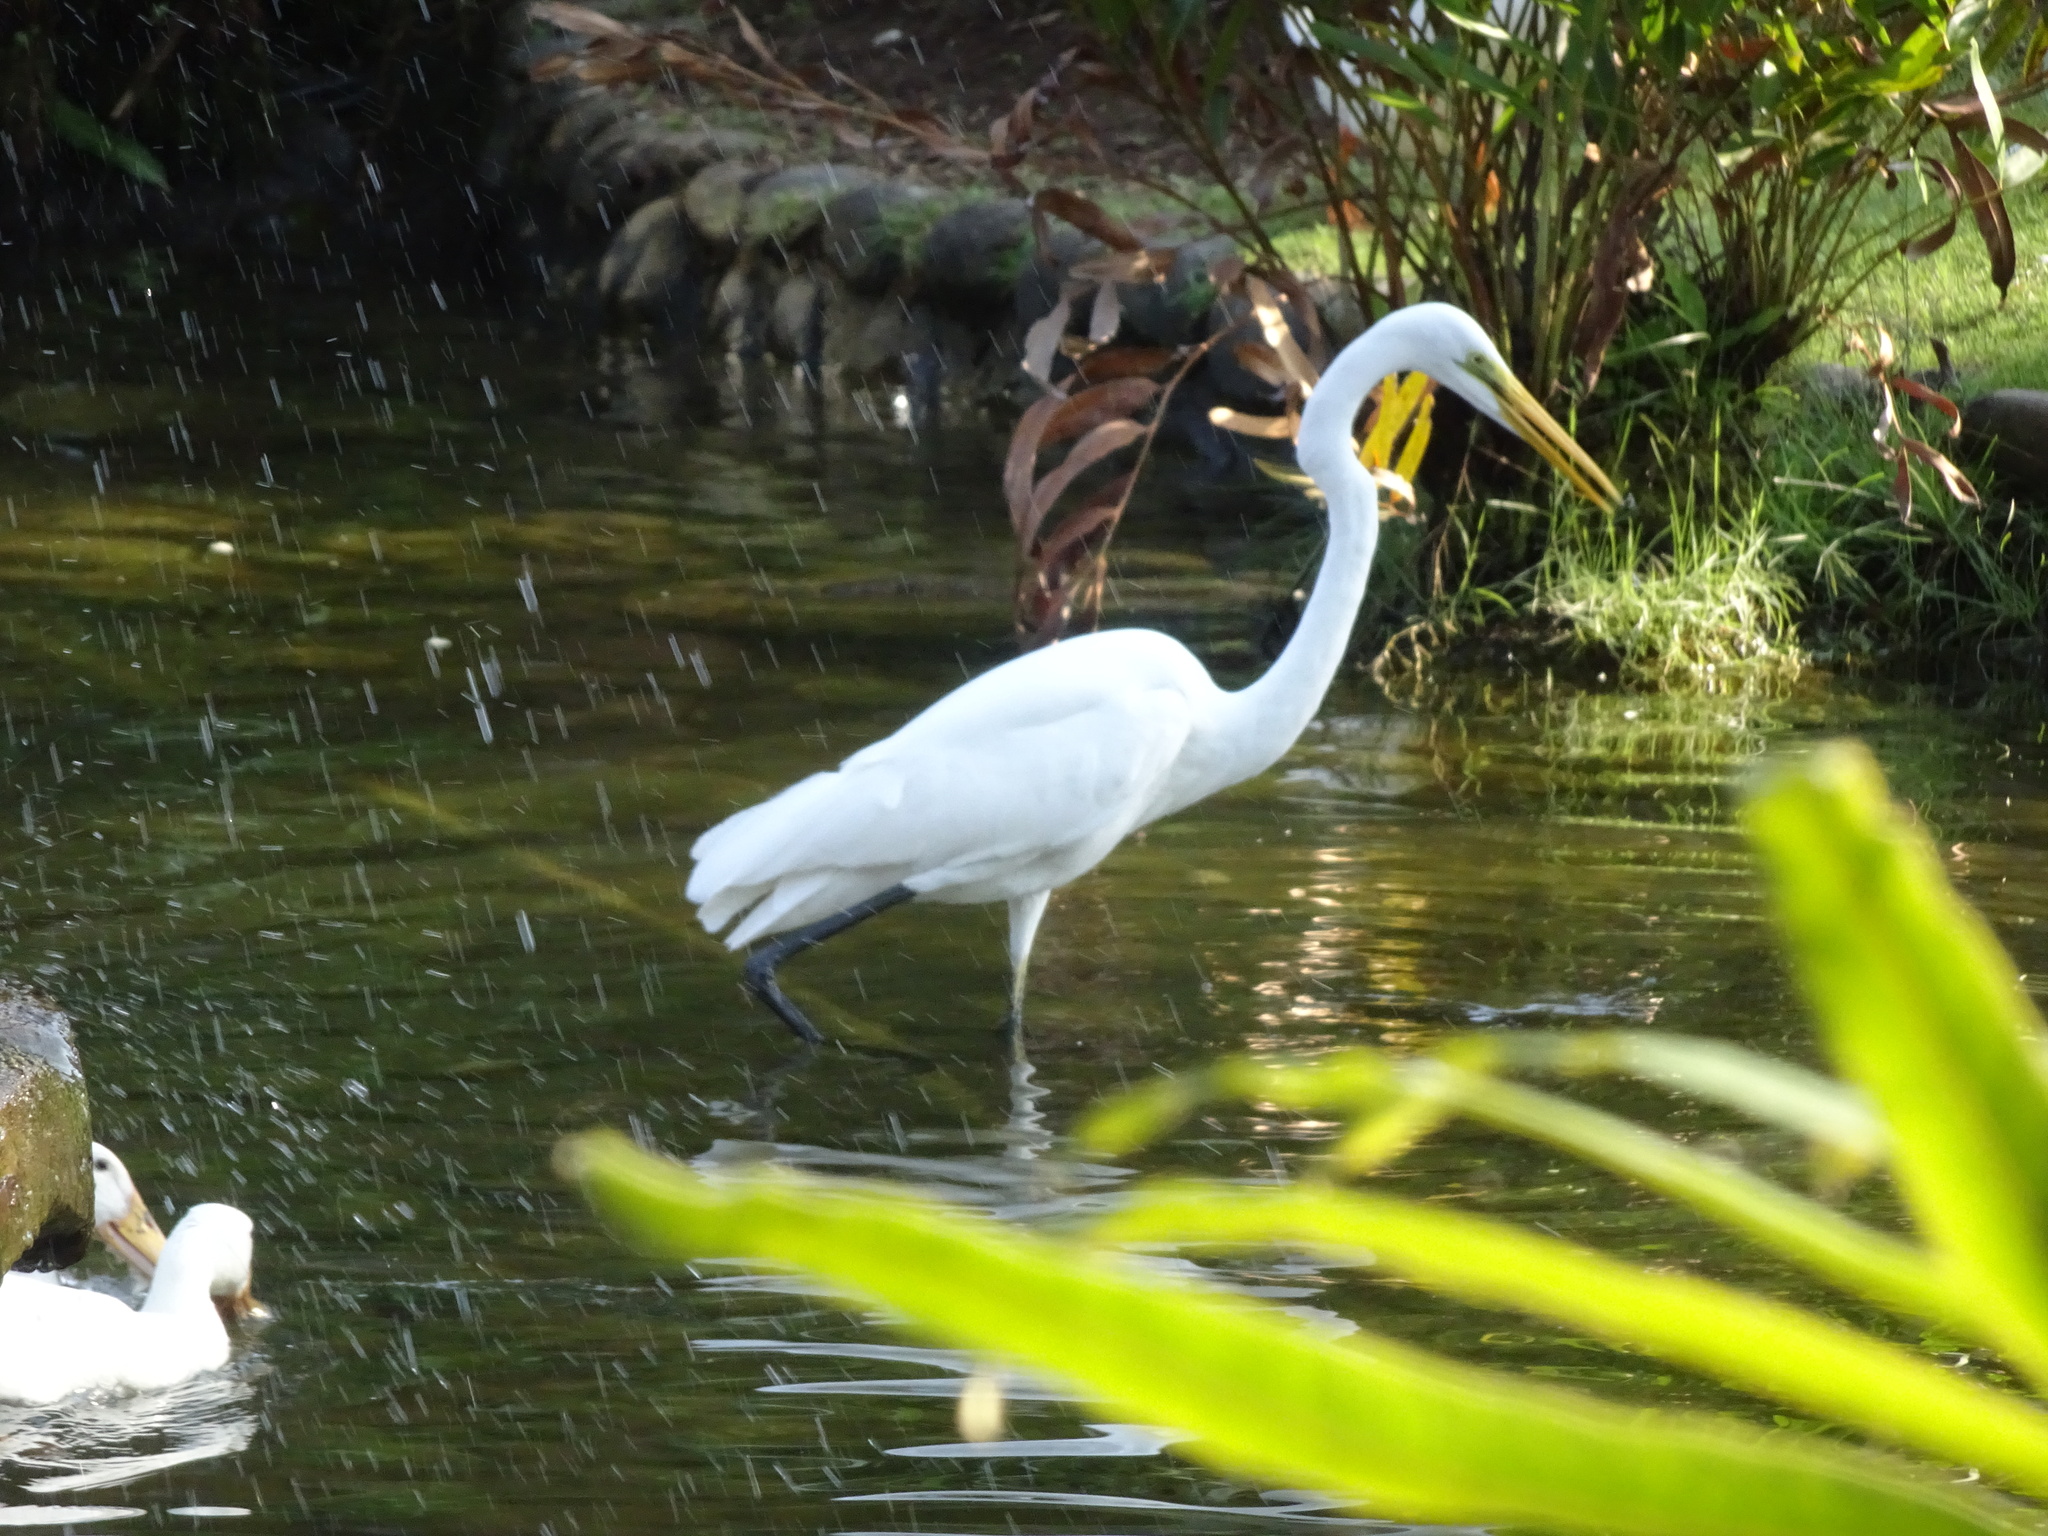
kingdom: Animalia
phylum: Chordata
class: Aves
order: Pelecaniformes
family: Ardeidae
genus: Ardea
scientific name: Ardea alba
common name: Great egret
